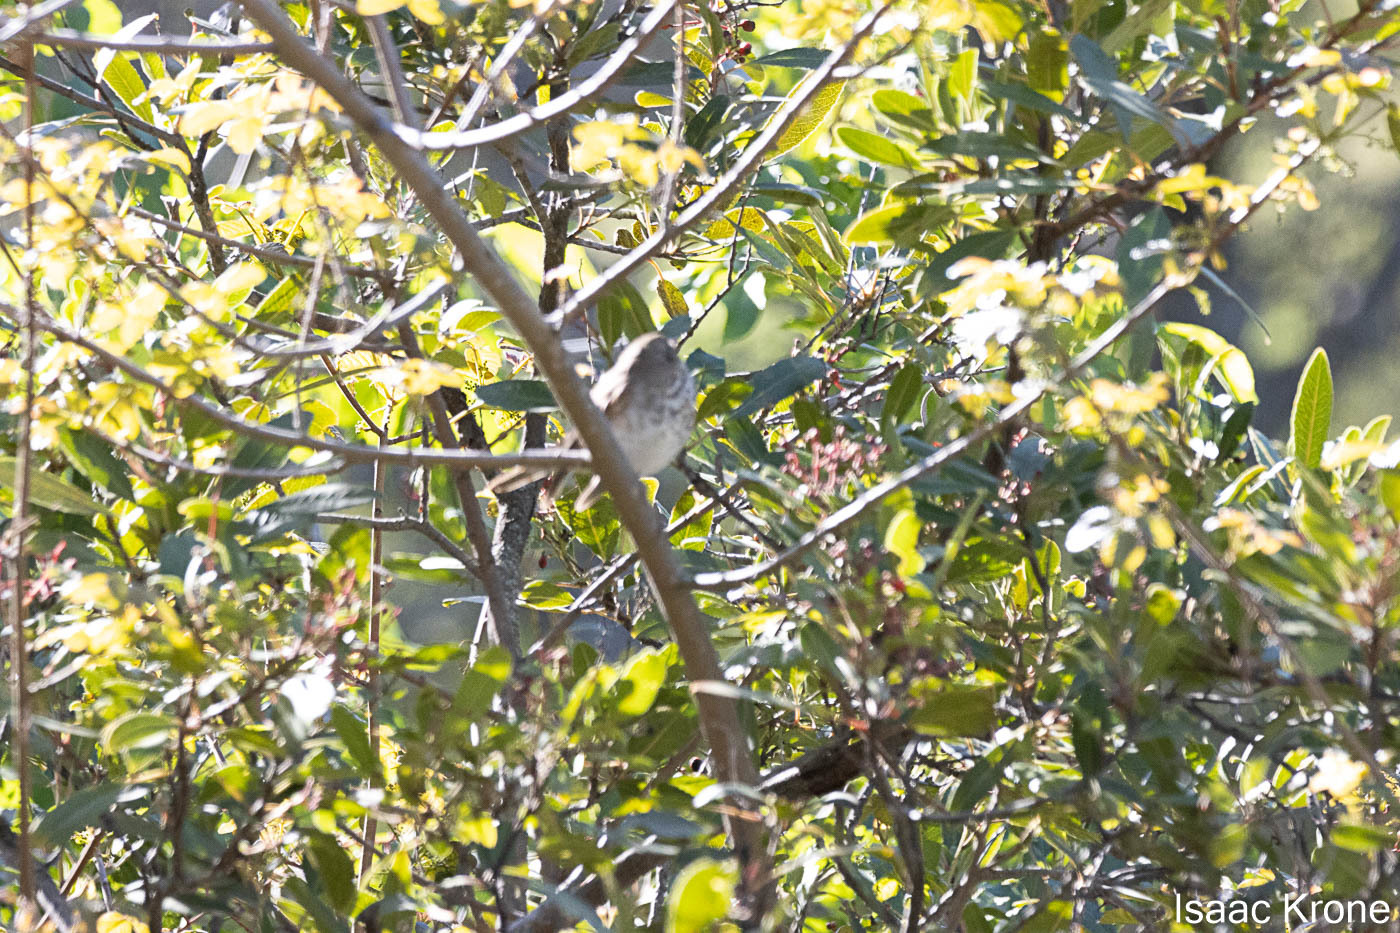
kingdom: Animalia
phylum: Chordata
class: Aves
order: Passeriformes
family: Turdidae
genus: Catharus
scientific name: Catharus guttatus
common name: Hermit thrush
